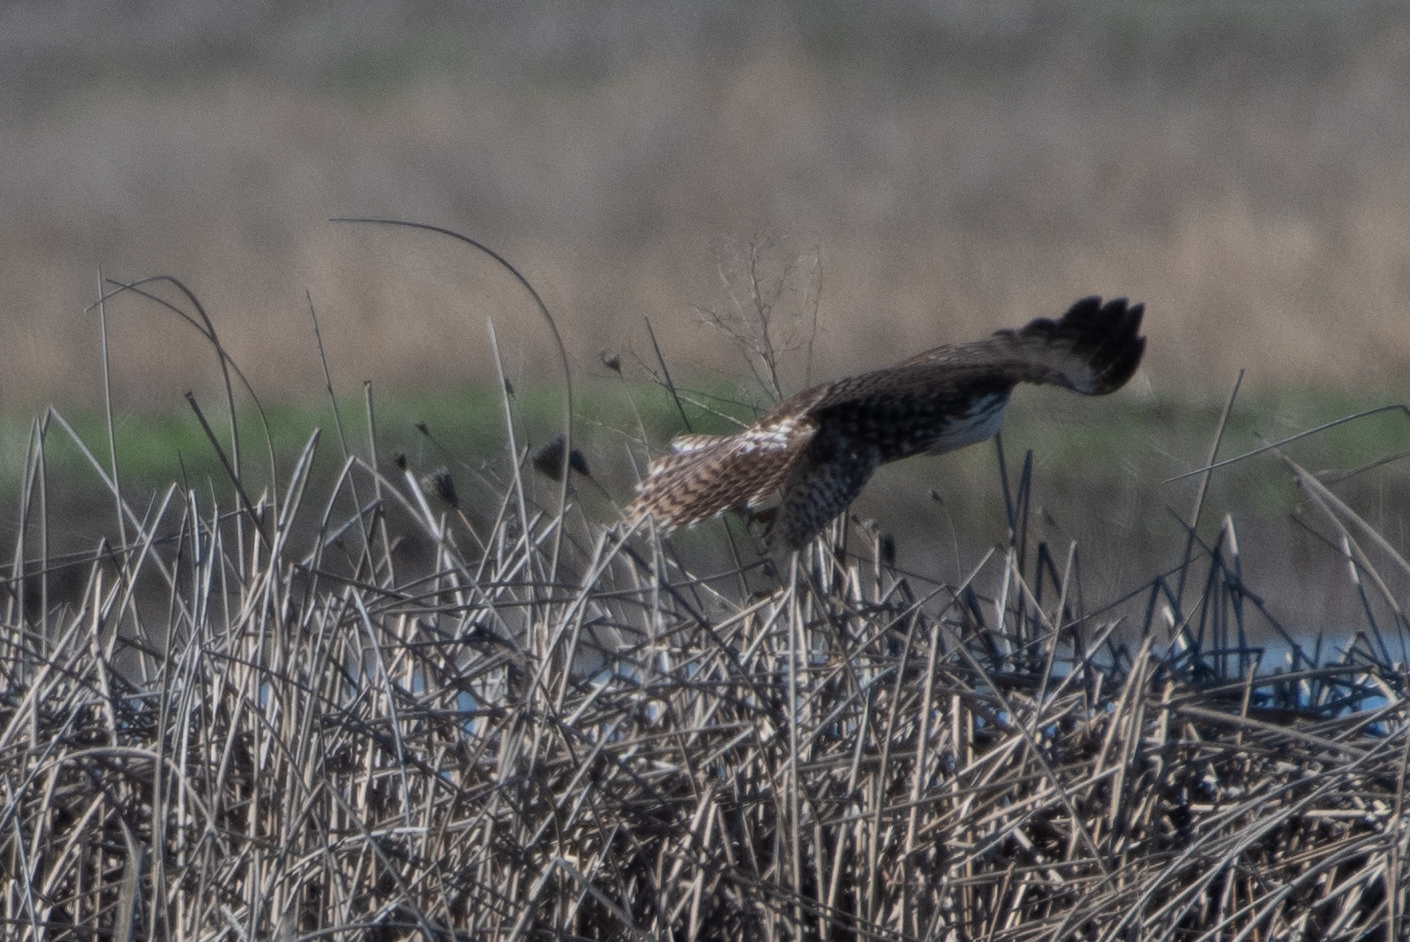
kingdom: Animalia
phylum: Chordata
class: Aves
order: Accipitriformes
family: Accipitridae
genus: Buteo
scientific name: Buteo jamaicensis
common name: Red-tailed hawk
